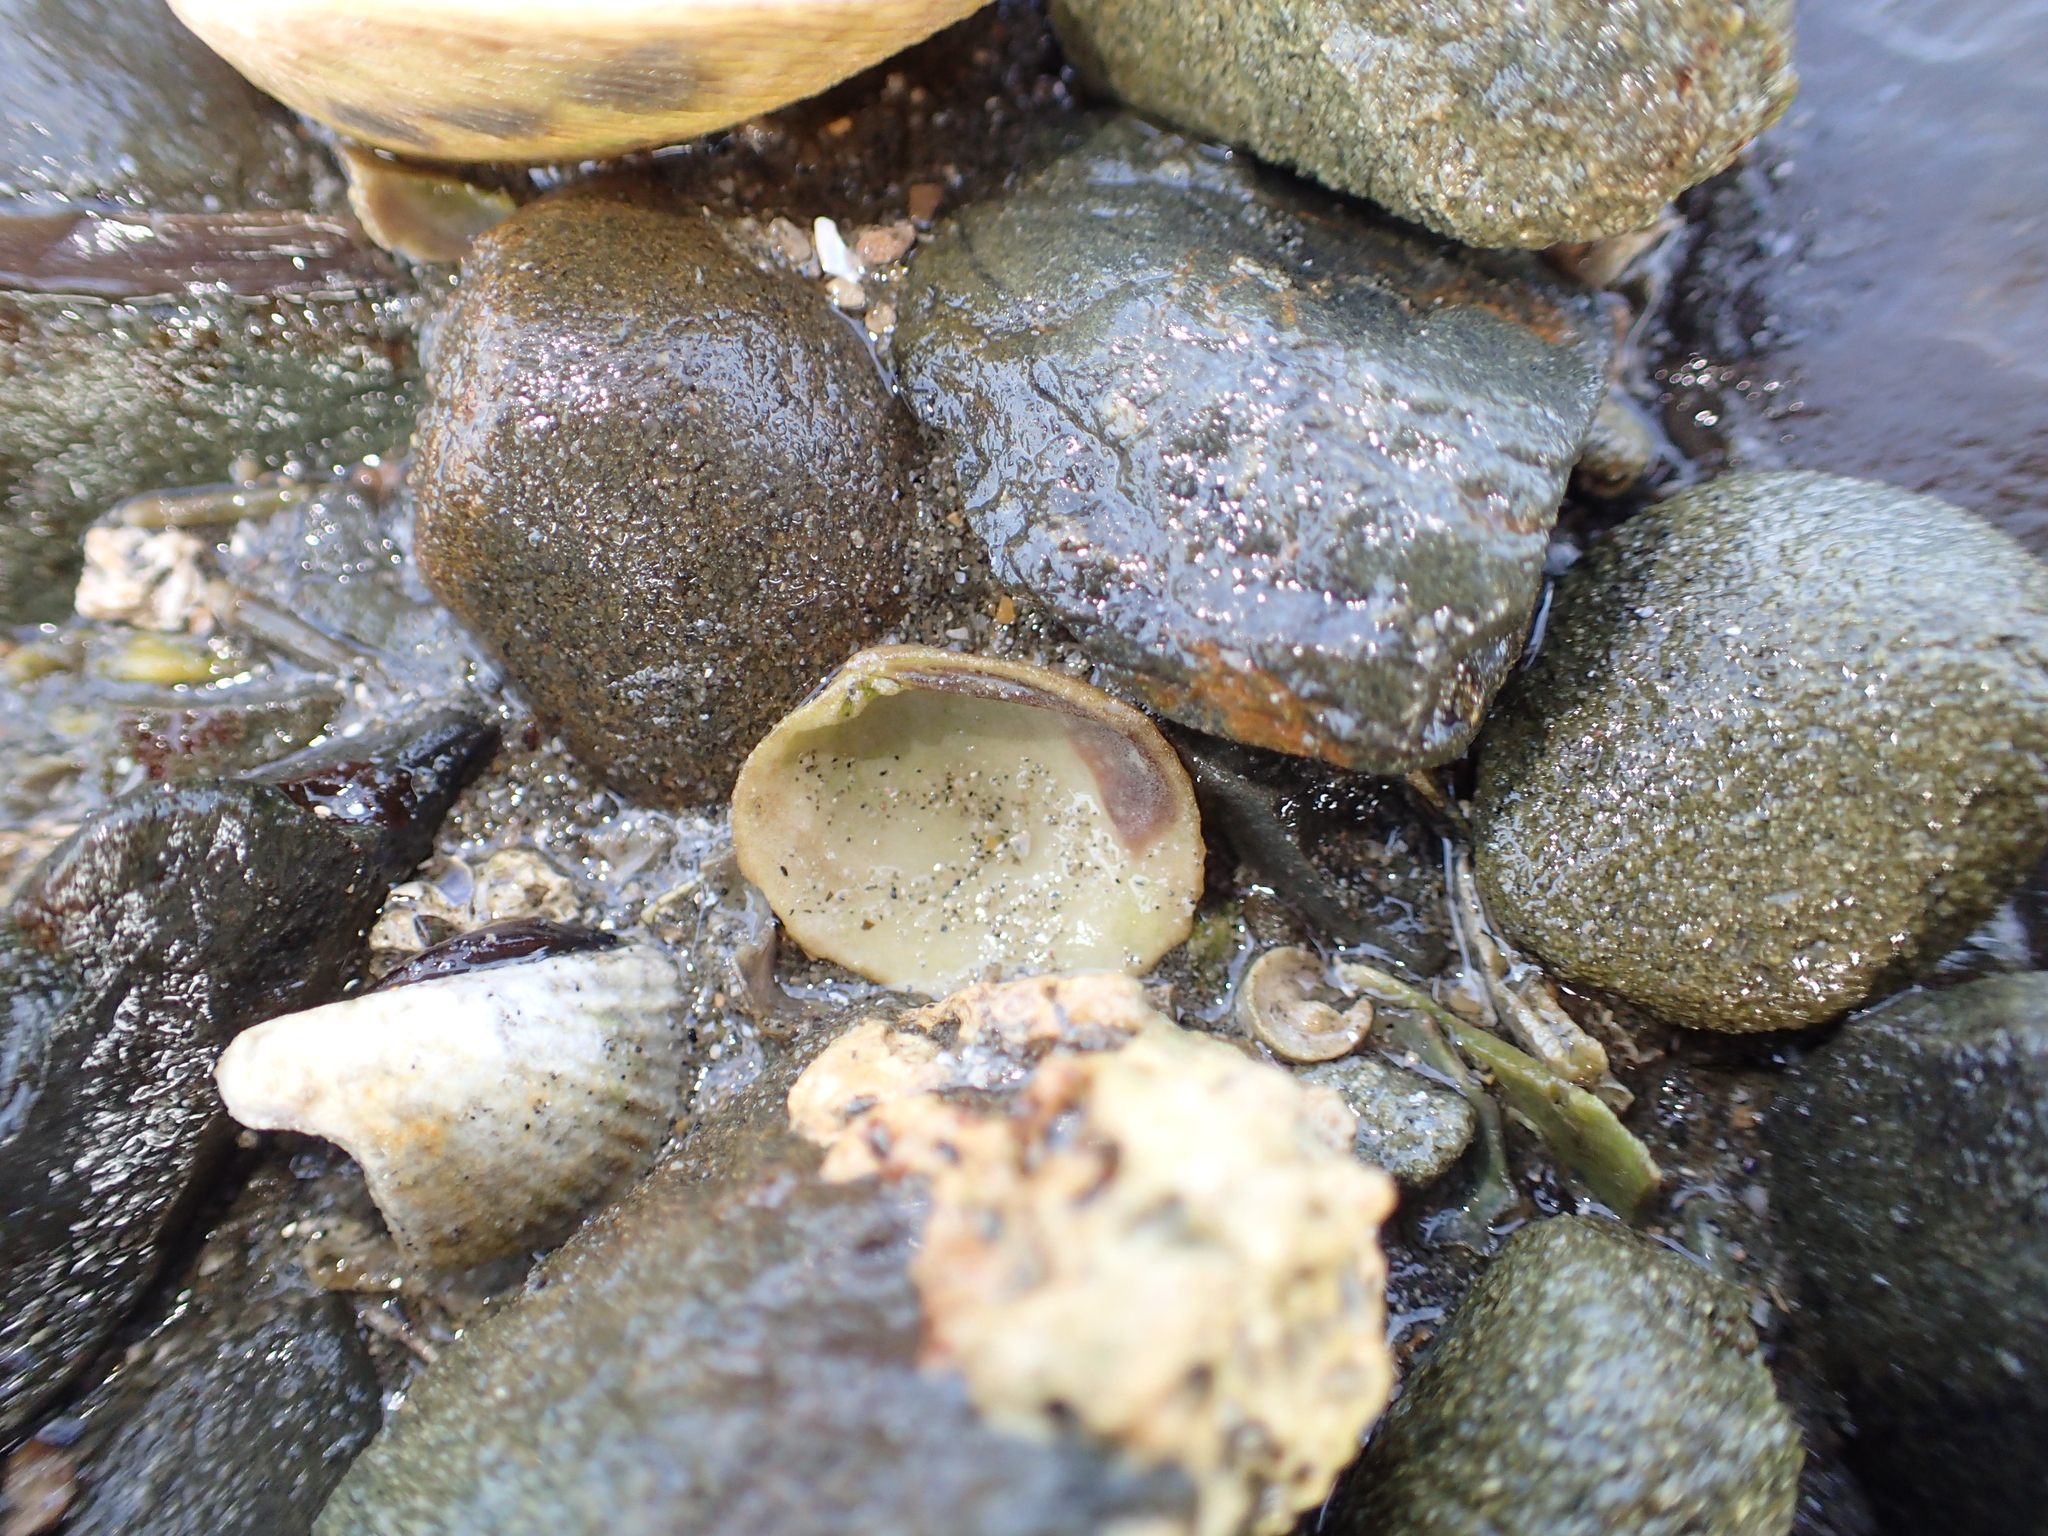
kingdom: Animalia
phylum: Mollusca
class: Bivalvia
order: Venerida
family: Veneridae
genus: Leukoma
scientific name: Leukoma crassicosta
